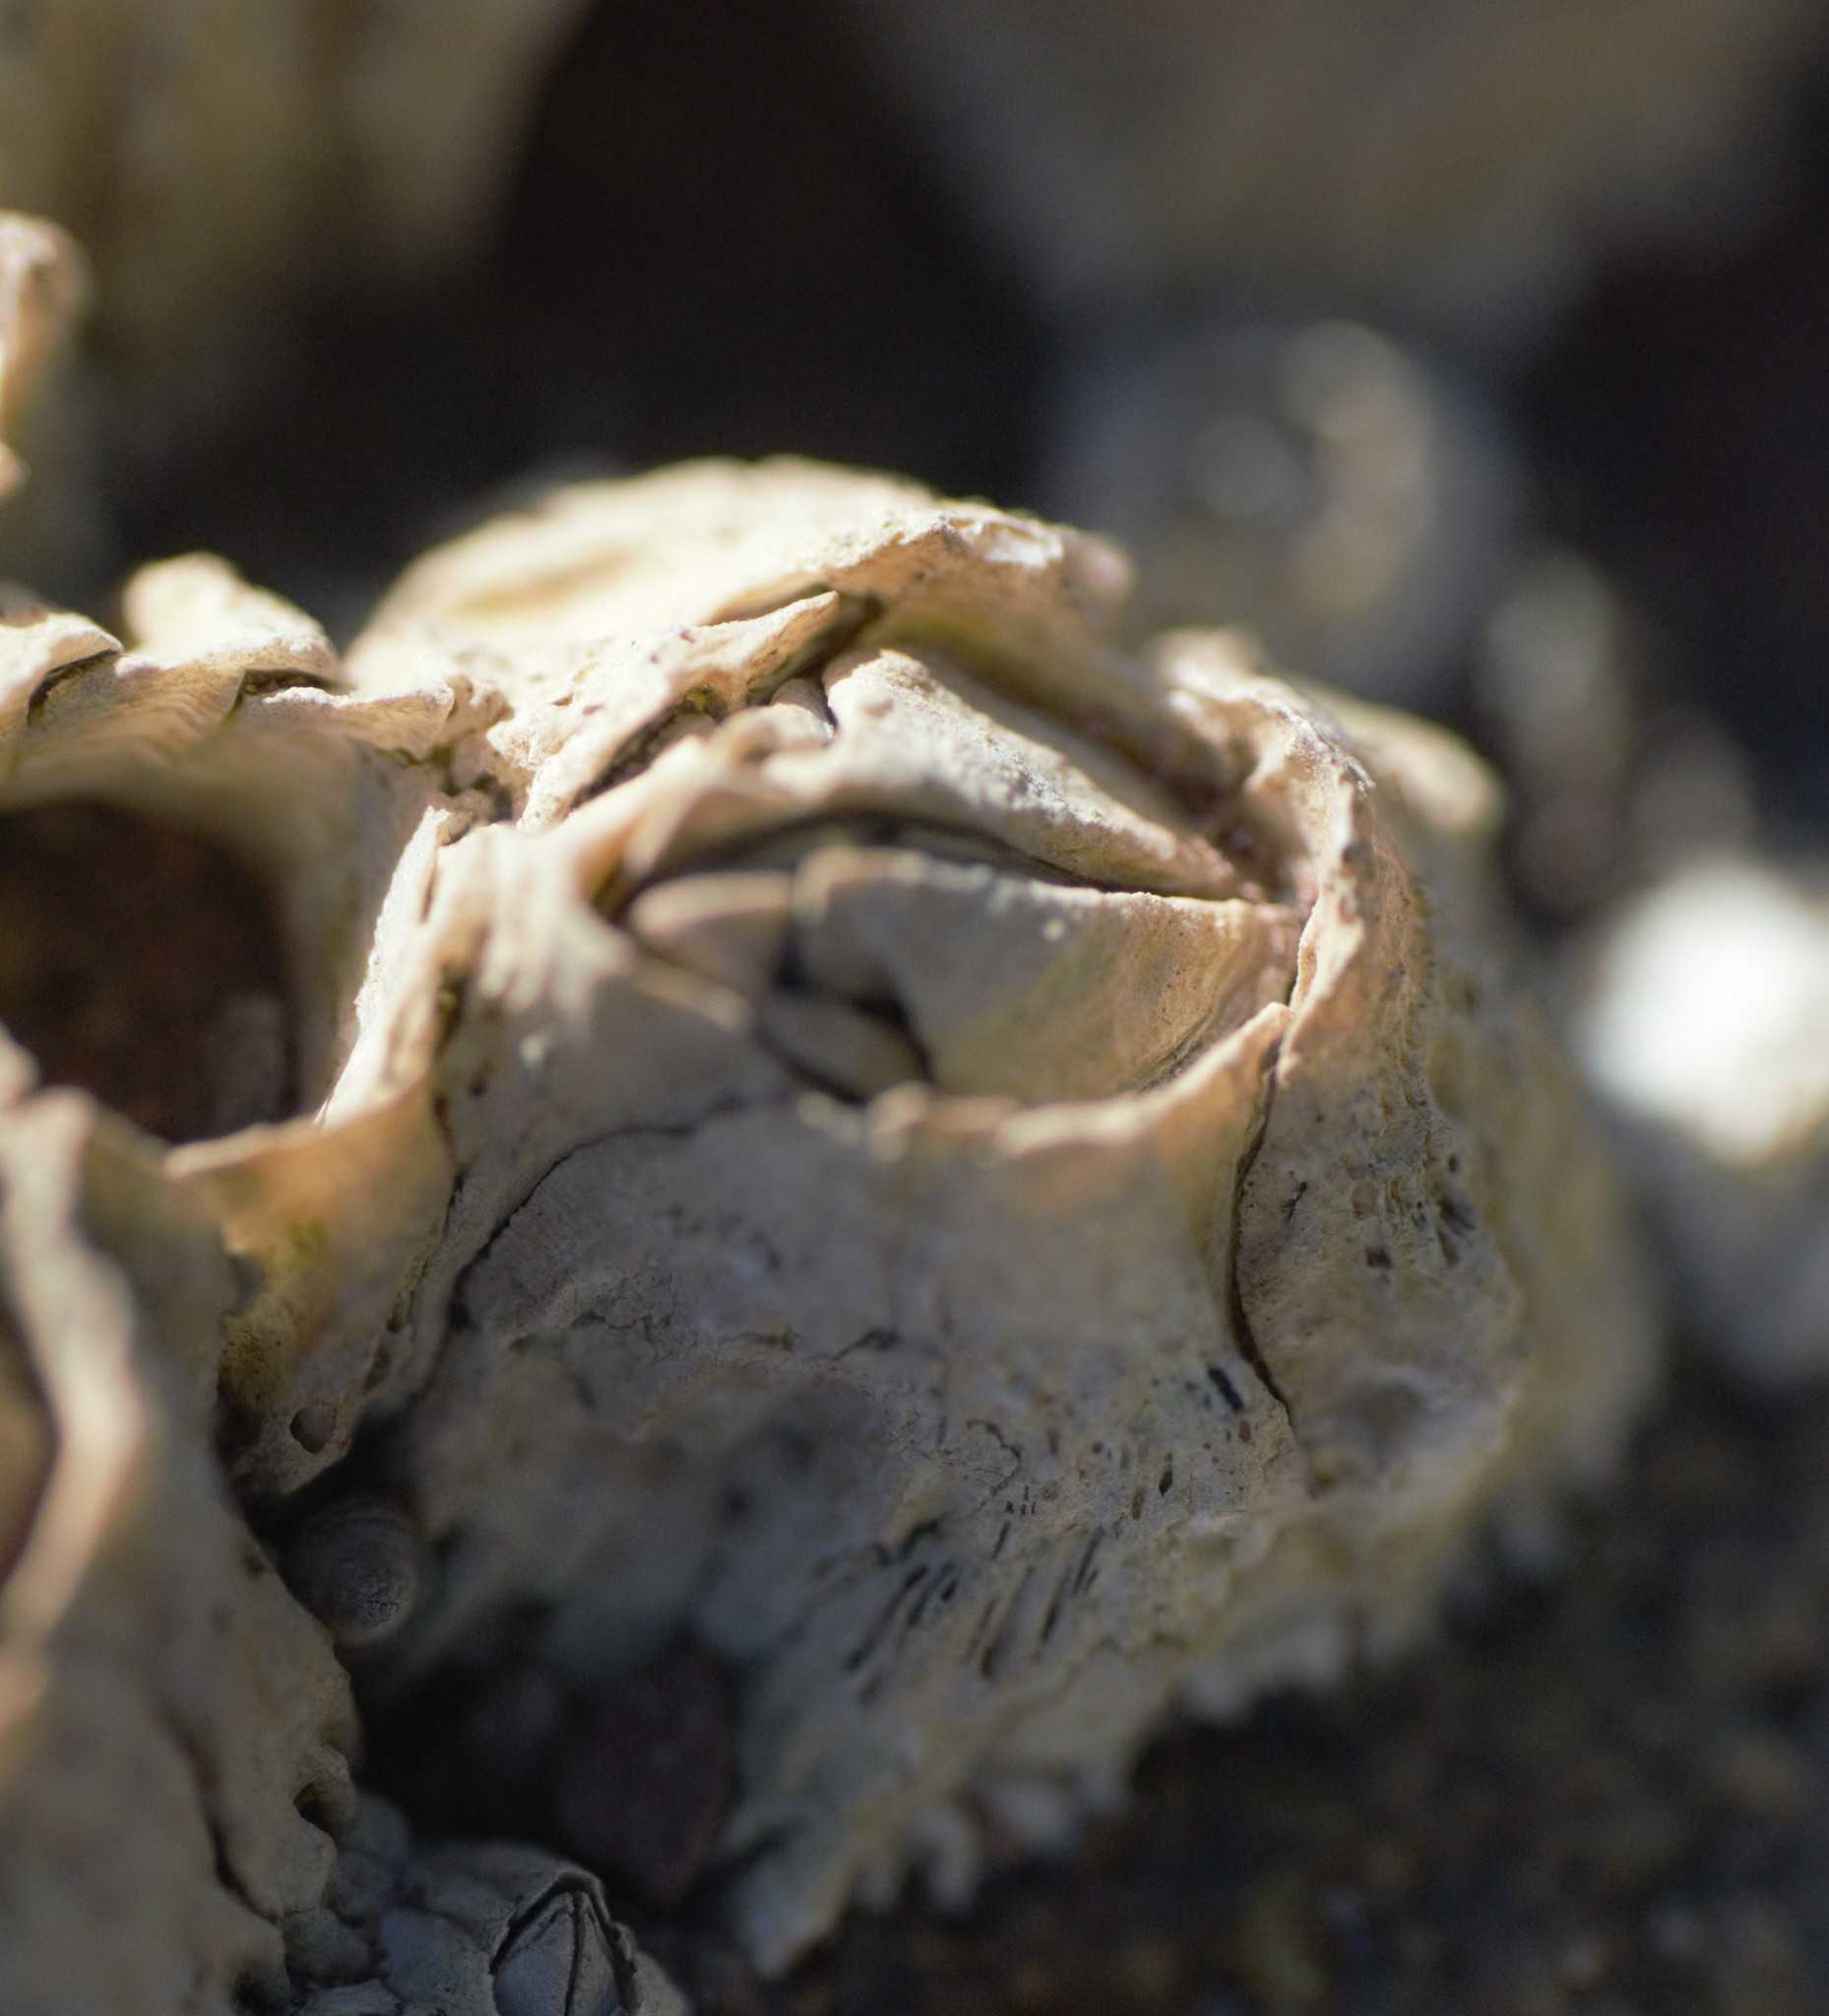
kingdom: Animalia
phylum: Arthropoda
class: Maxillopoda
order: Sessilia
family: Archaeobalanidae
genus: Semibalanus
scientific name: Semibalanus balanoides
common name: Acorn barnacle
